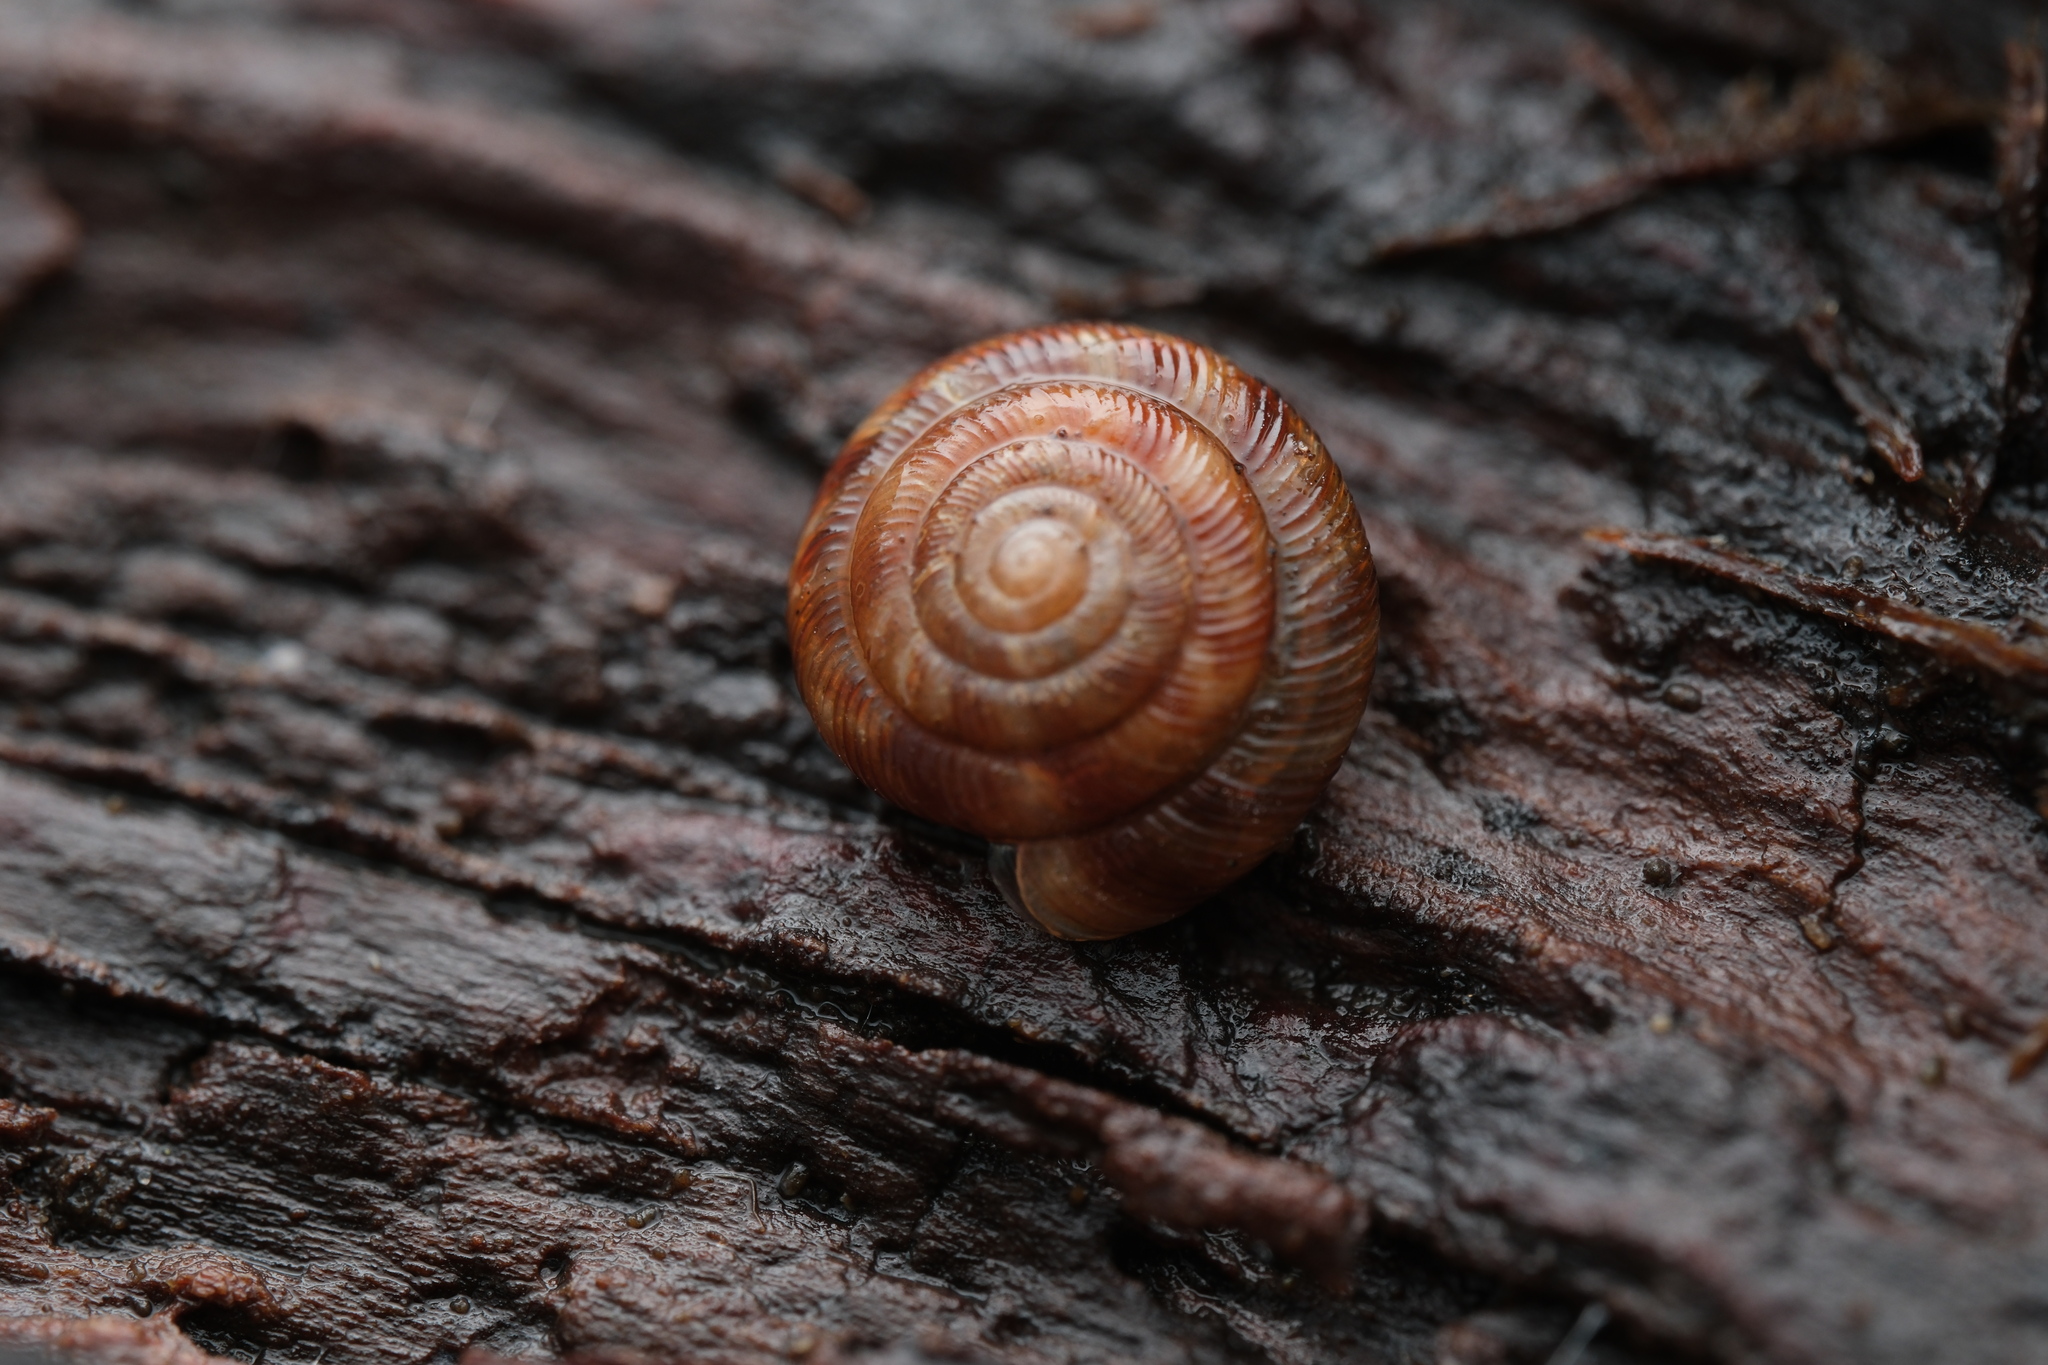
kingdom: Animalia
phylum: Mollusca
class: Gastropoda
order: Stylommatophora
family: Discidae
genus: Discus
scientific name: Discus rotundatus
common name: Rounded snail
